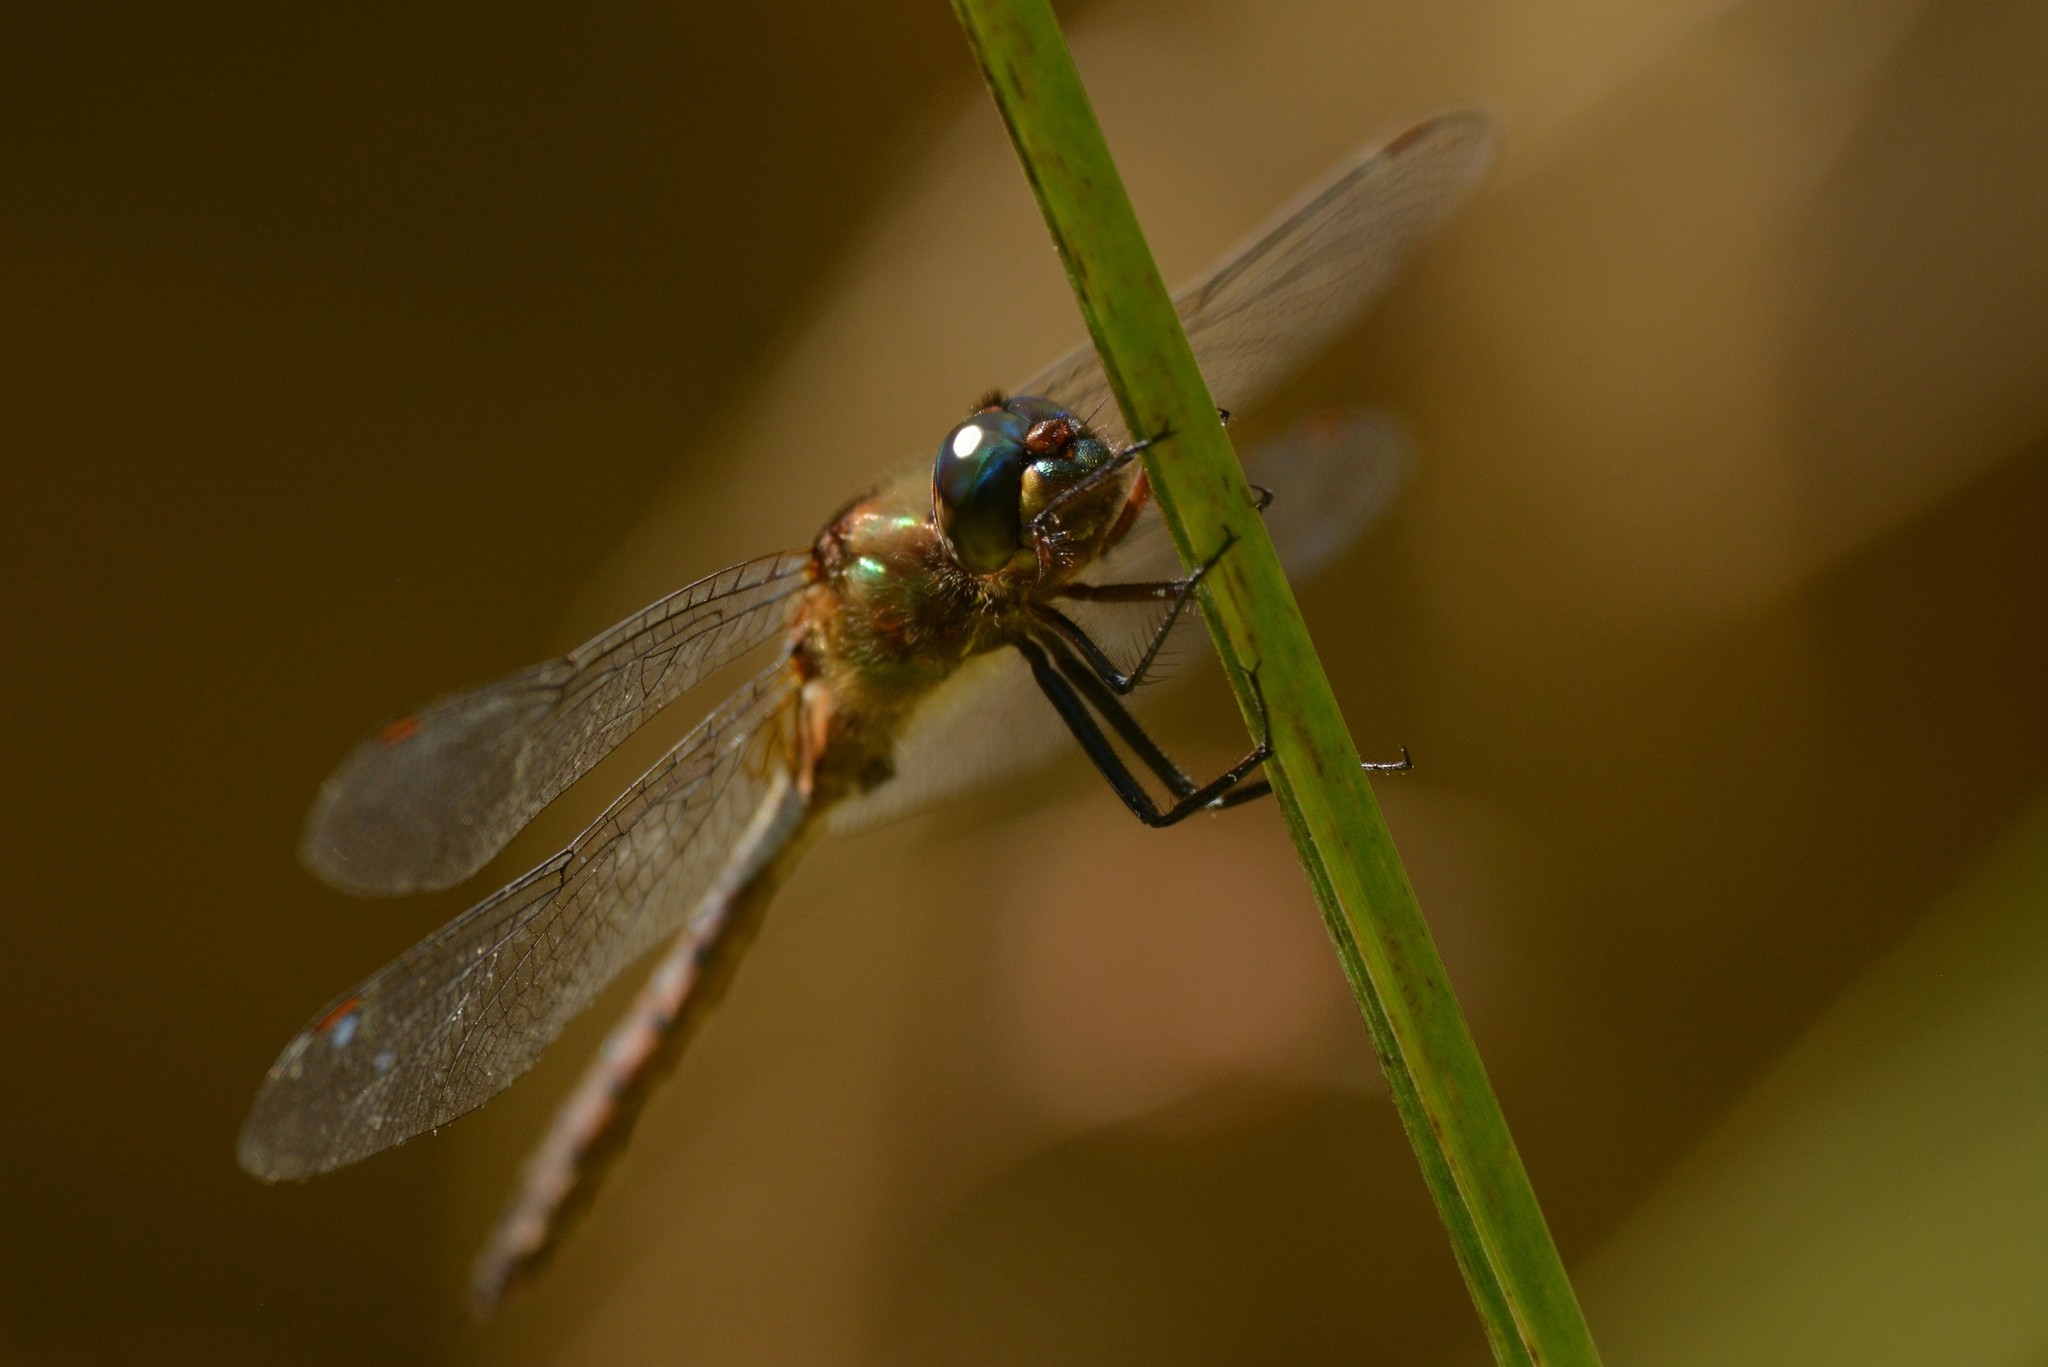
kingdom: Animalia
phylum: Arthropoda
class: Insecta
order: Odonata
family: Corduliidae
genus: Procordulia
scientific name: Procordulia smithii
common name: Ranger dragonfly
